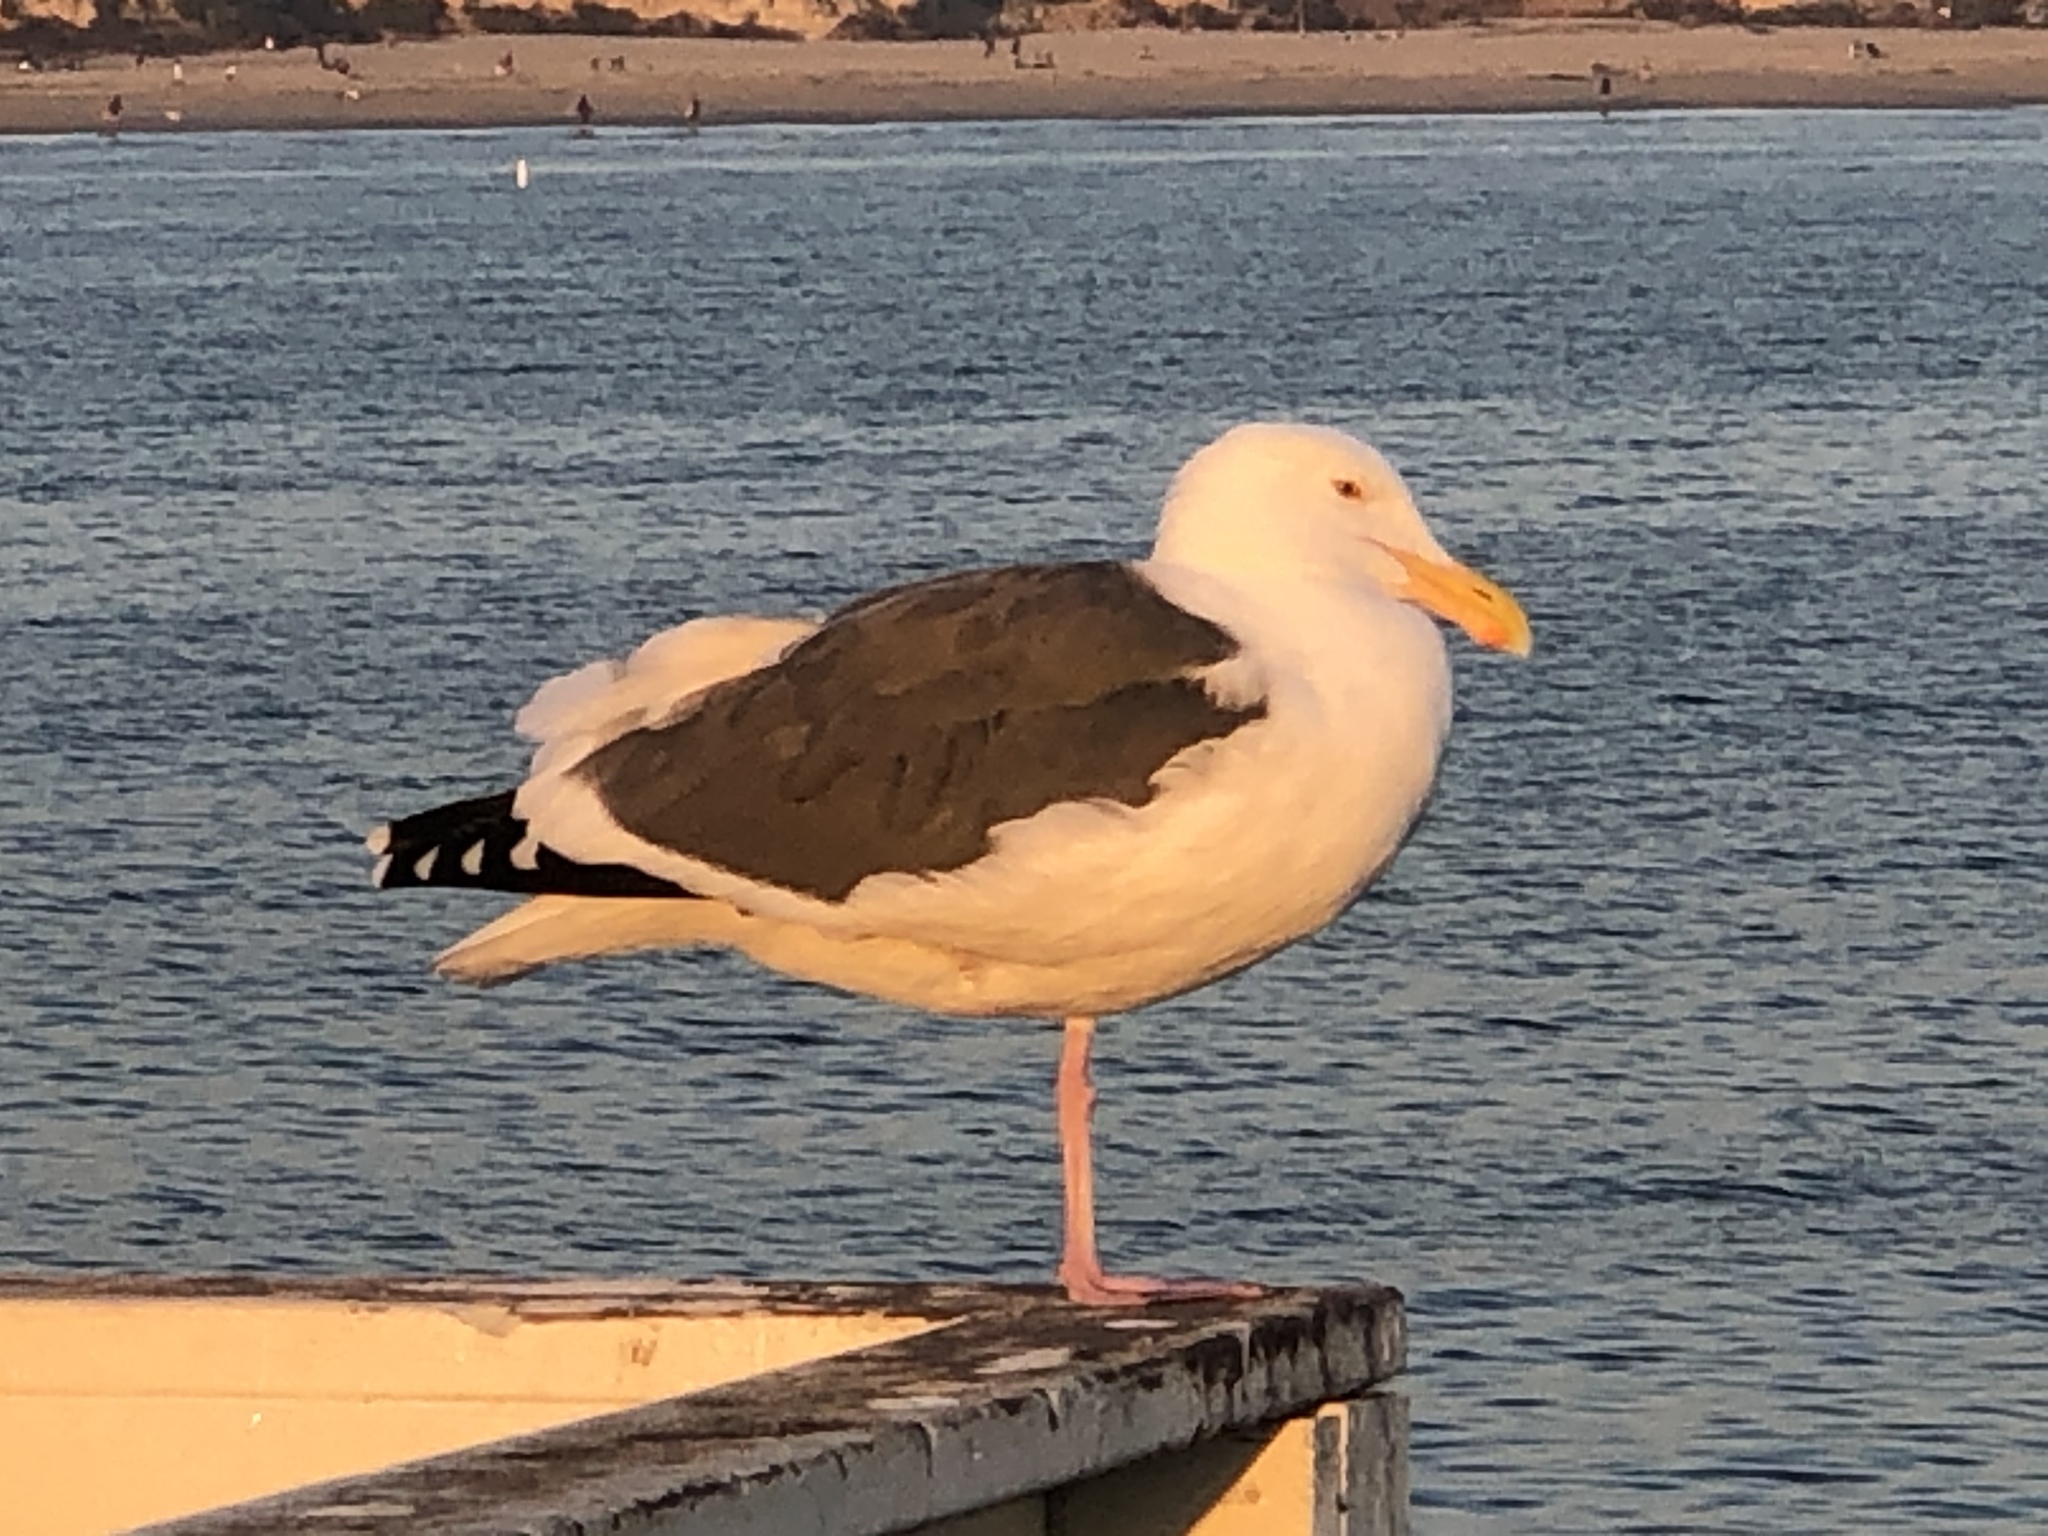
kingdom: Animalia
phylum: Chordata
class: Aves
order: Charadriiformes
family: Laridae
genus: Larus
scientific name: Larus occidentalis
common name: Western gull
